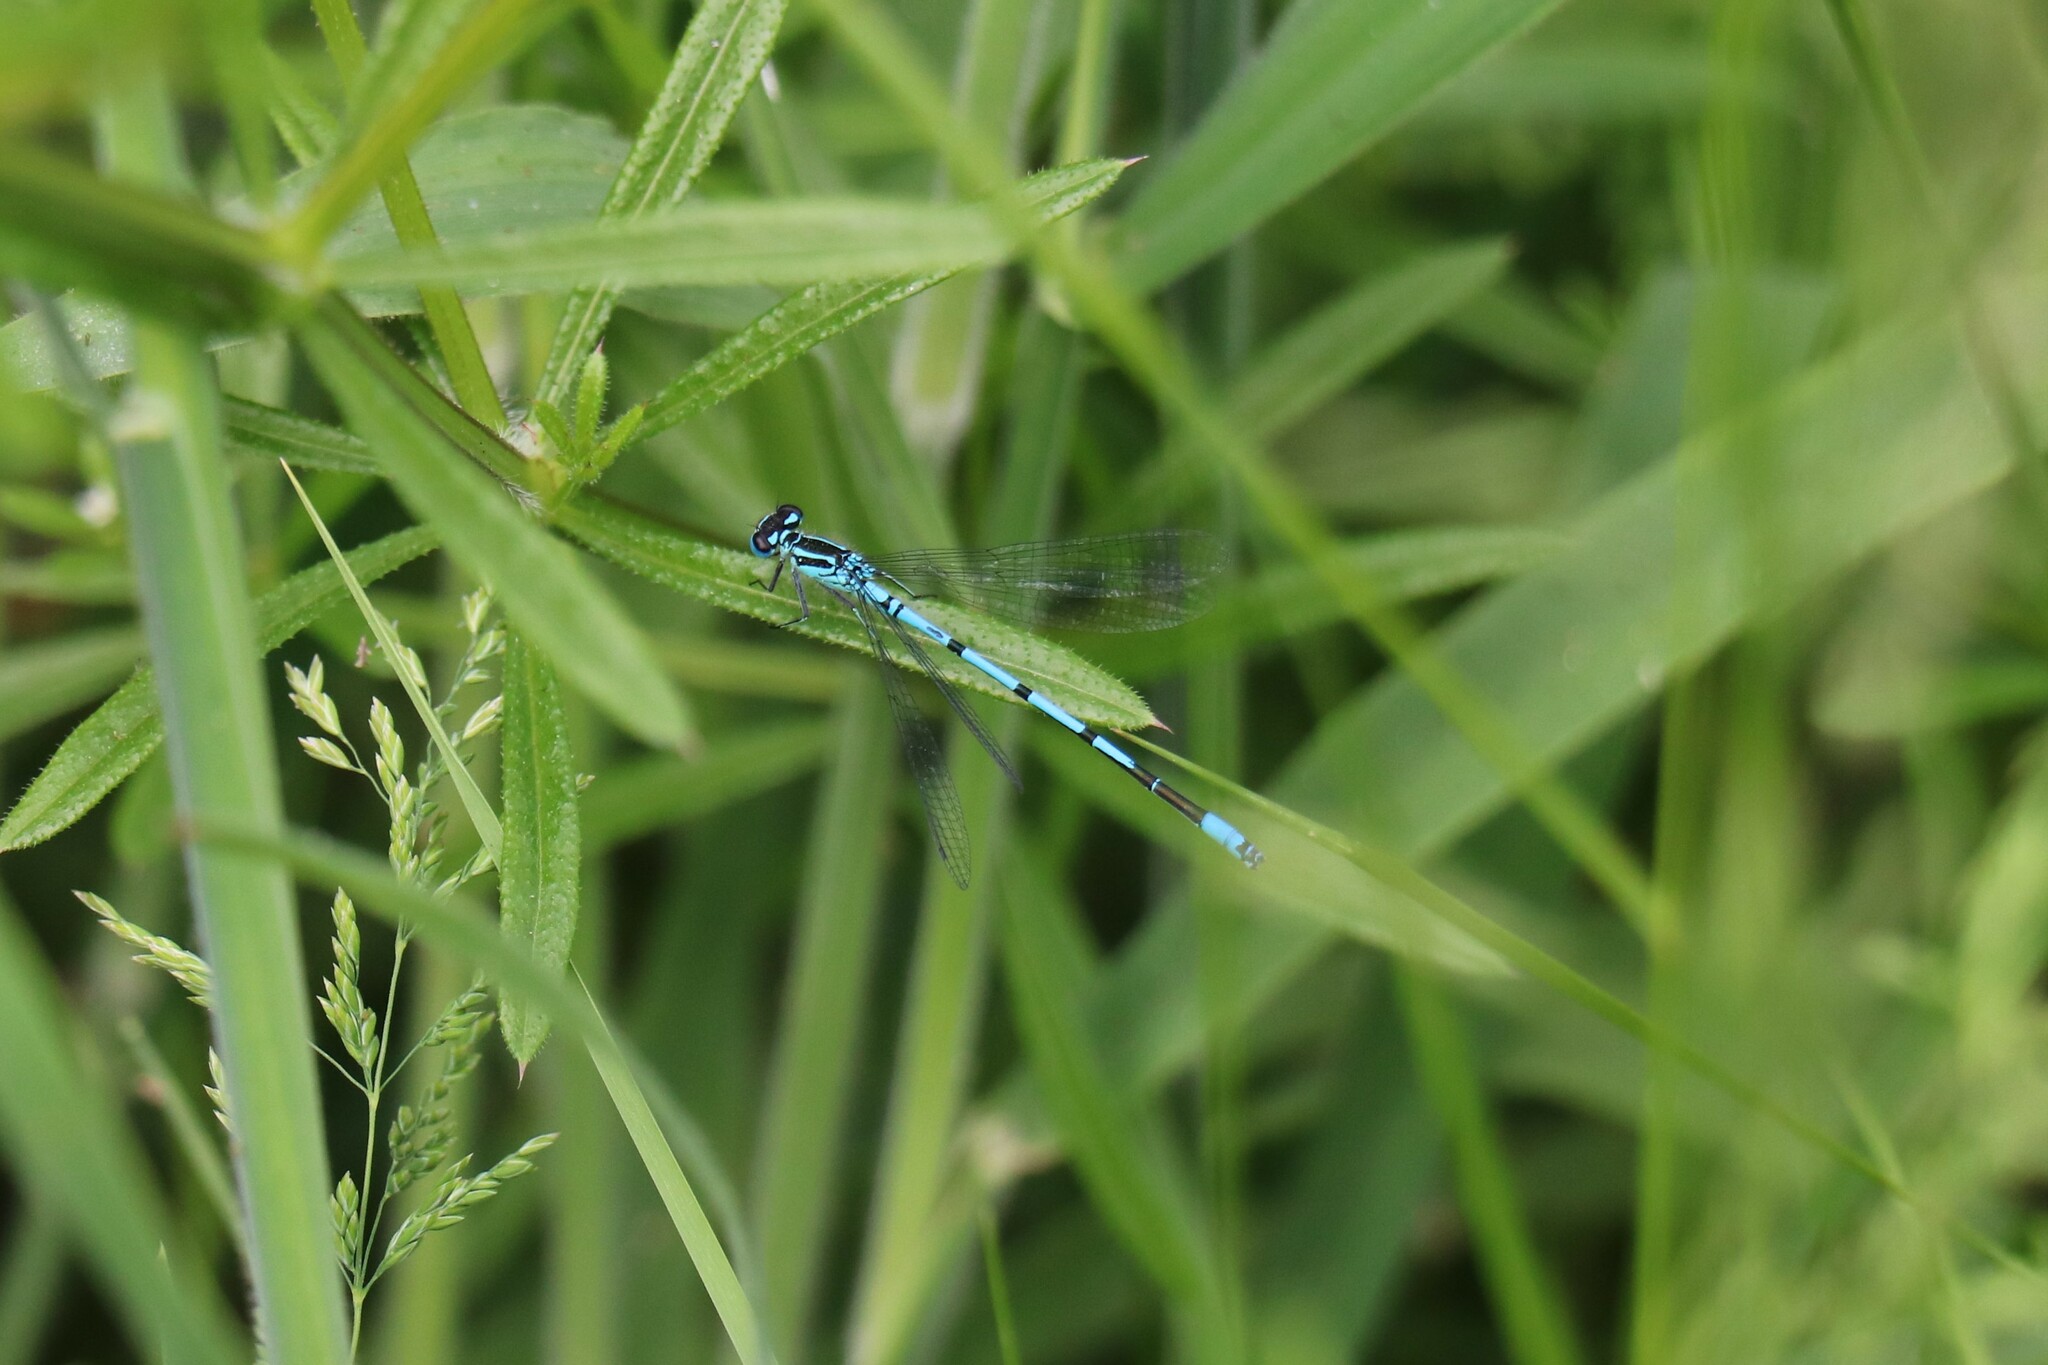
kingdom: Animalia
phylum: Arthropoda
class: Insecta
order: Odonata
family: Coenagrionidae
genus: Coenagrion
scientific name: Coenagrion puella
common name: Azure damselfly
